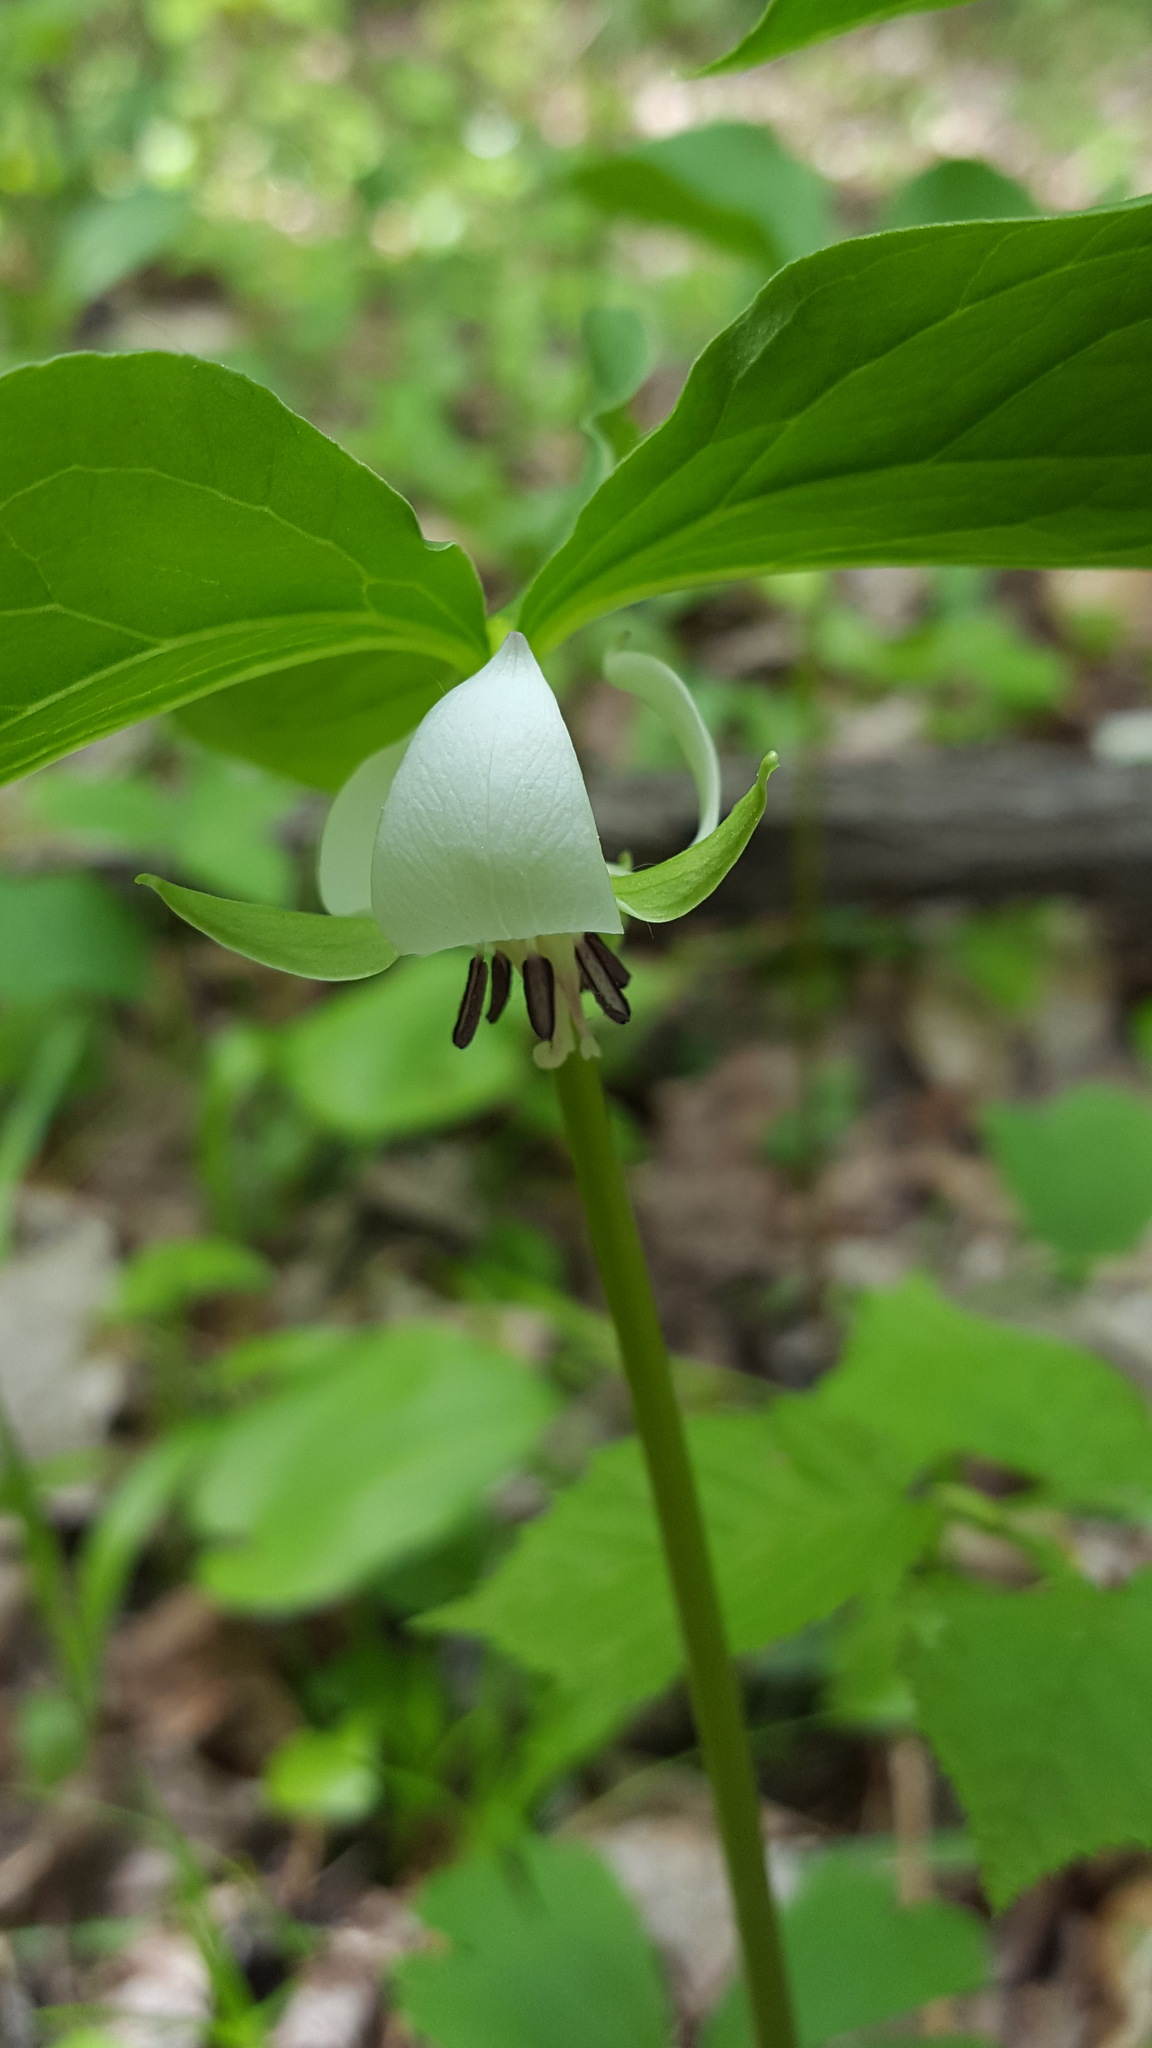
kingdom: Plantae
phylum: Tracheophyta
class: Liliopsida
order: Liliales
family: Melanthiaceae
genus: Trillium
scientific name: Trillium cernuum
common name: Nodding trillium
